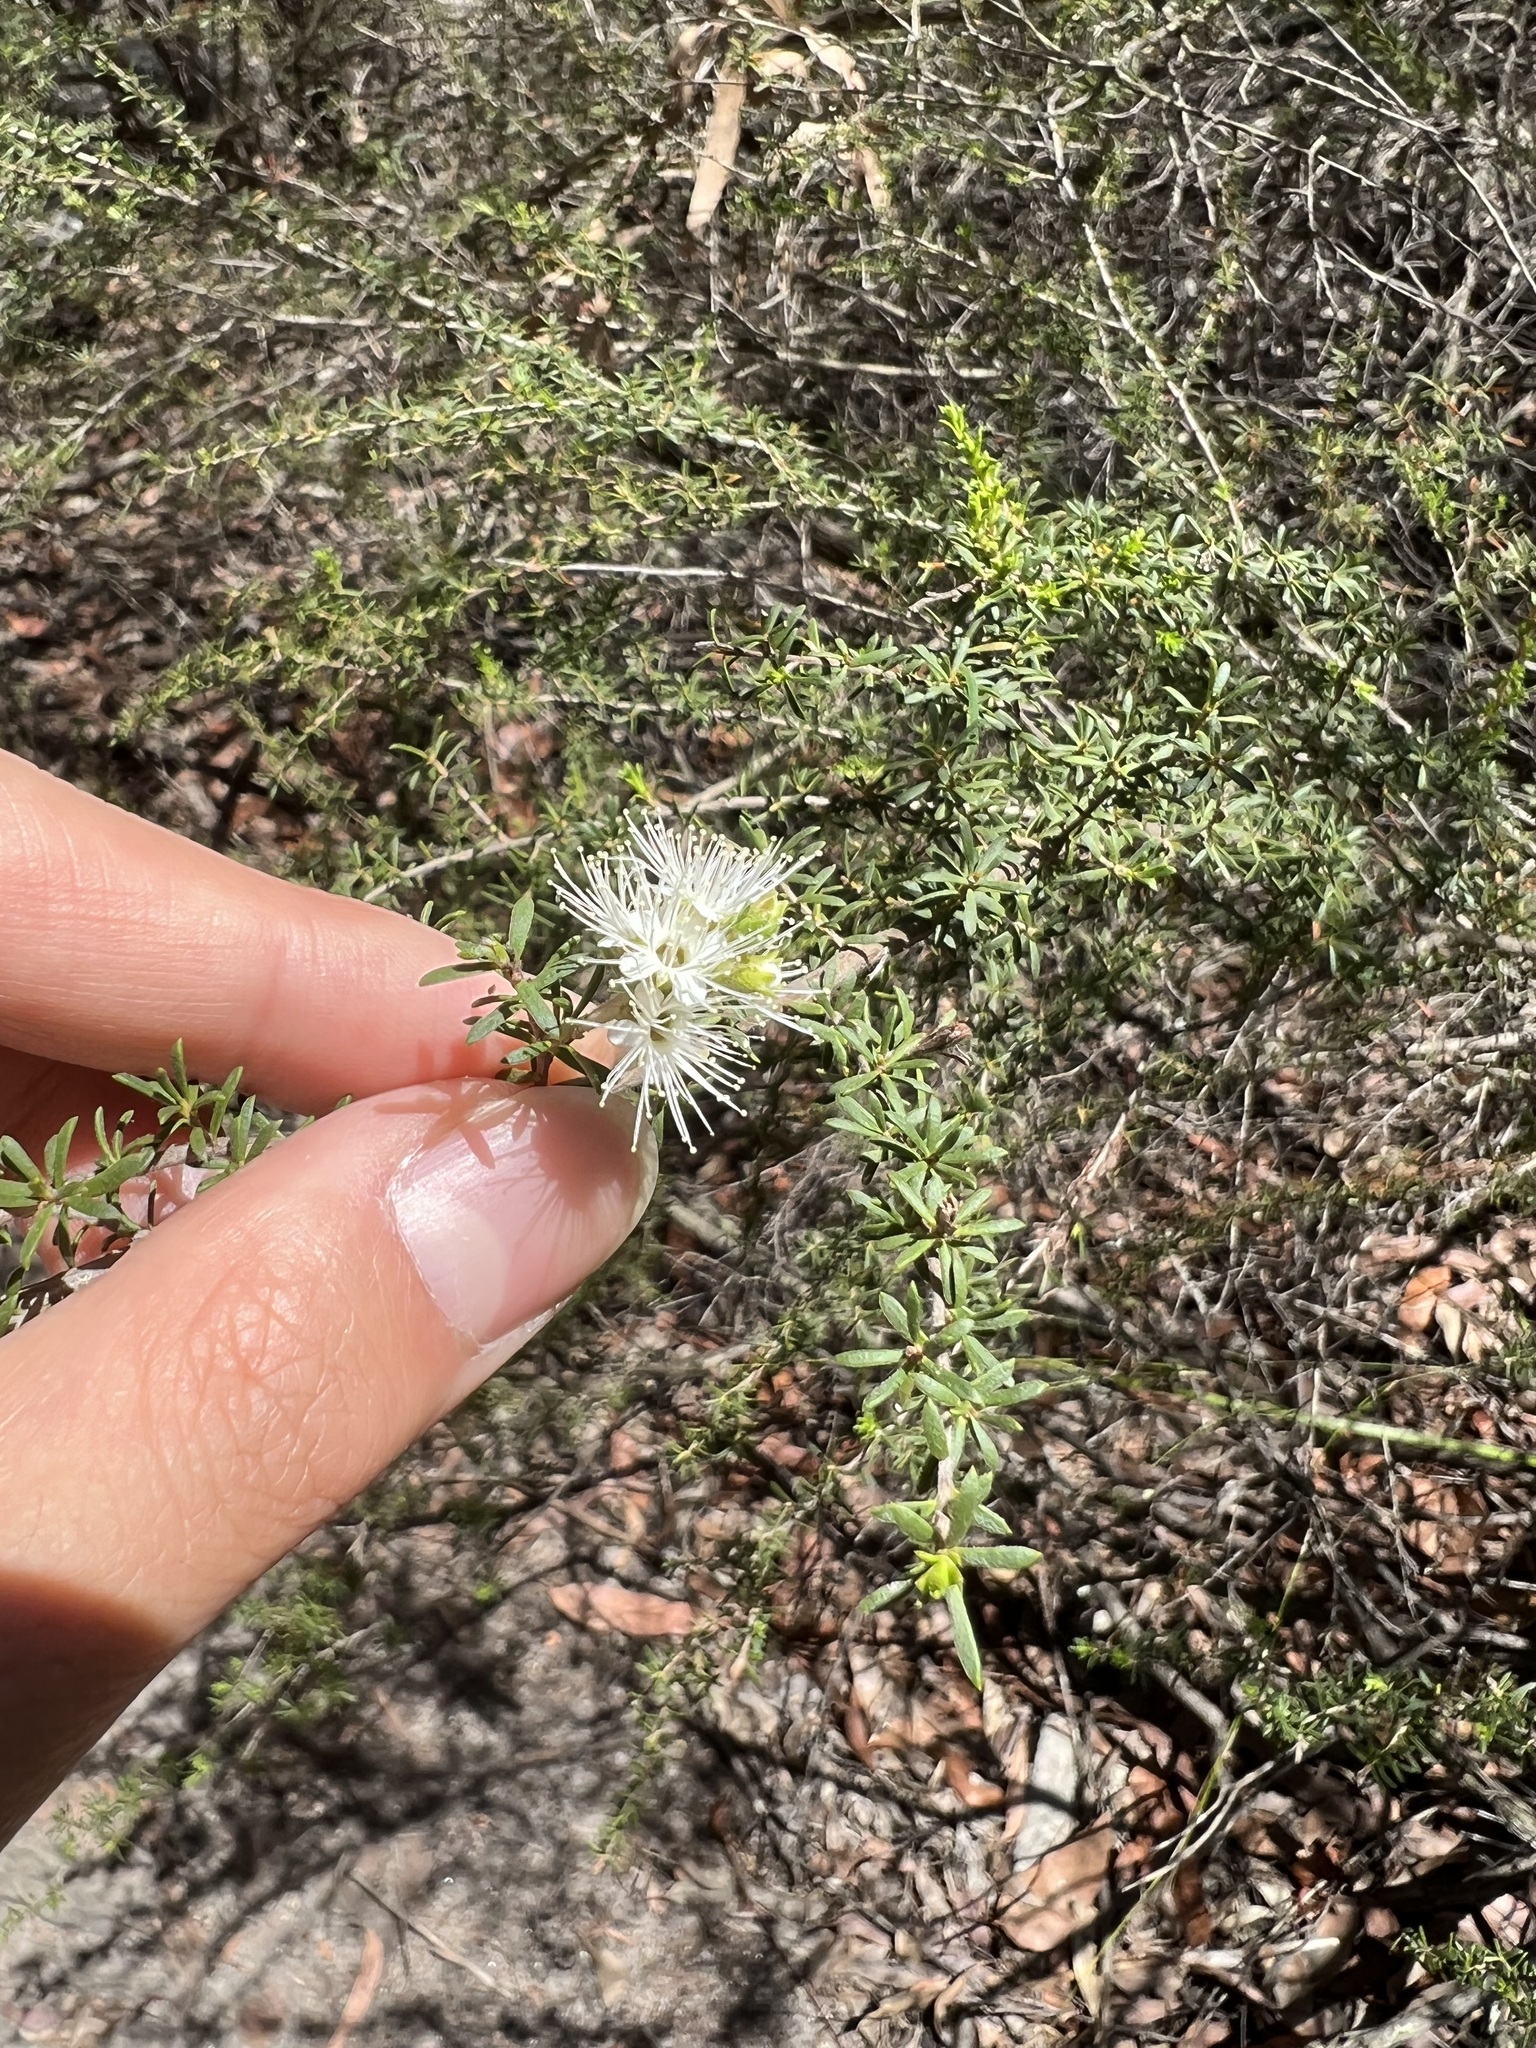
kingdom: Plantae
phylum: Tracheophyta
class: Magnoliopsida
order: Myrtales
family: Myrtaceae
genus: Kunzea
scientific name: Kunzea ambigua
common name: Tickbush
